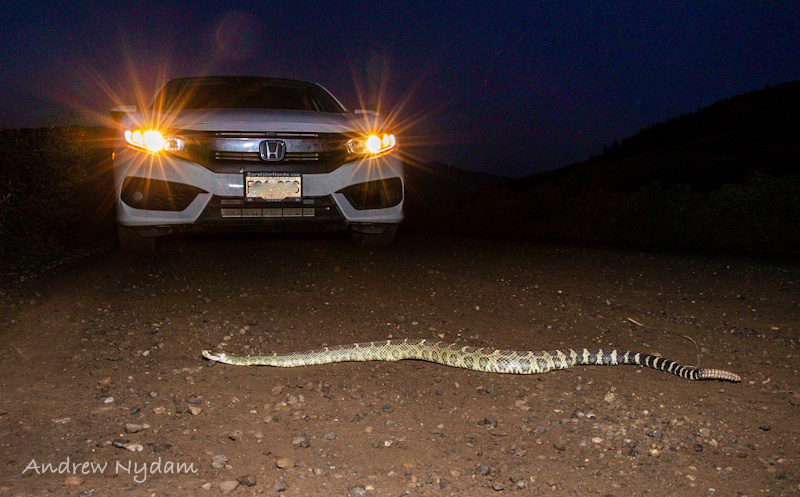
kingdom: Animalia
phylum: Chordata
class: Squamata
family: Viperidae
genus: Crotalus
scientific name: Crotalus oreganus
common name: Abyssus
